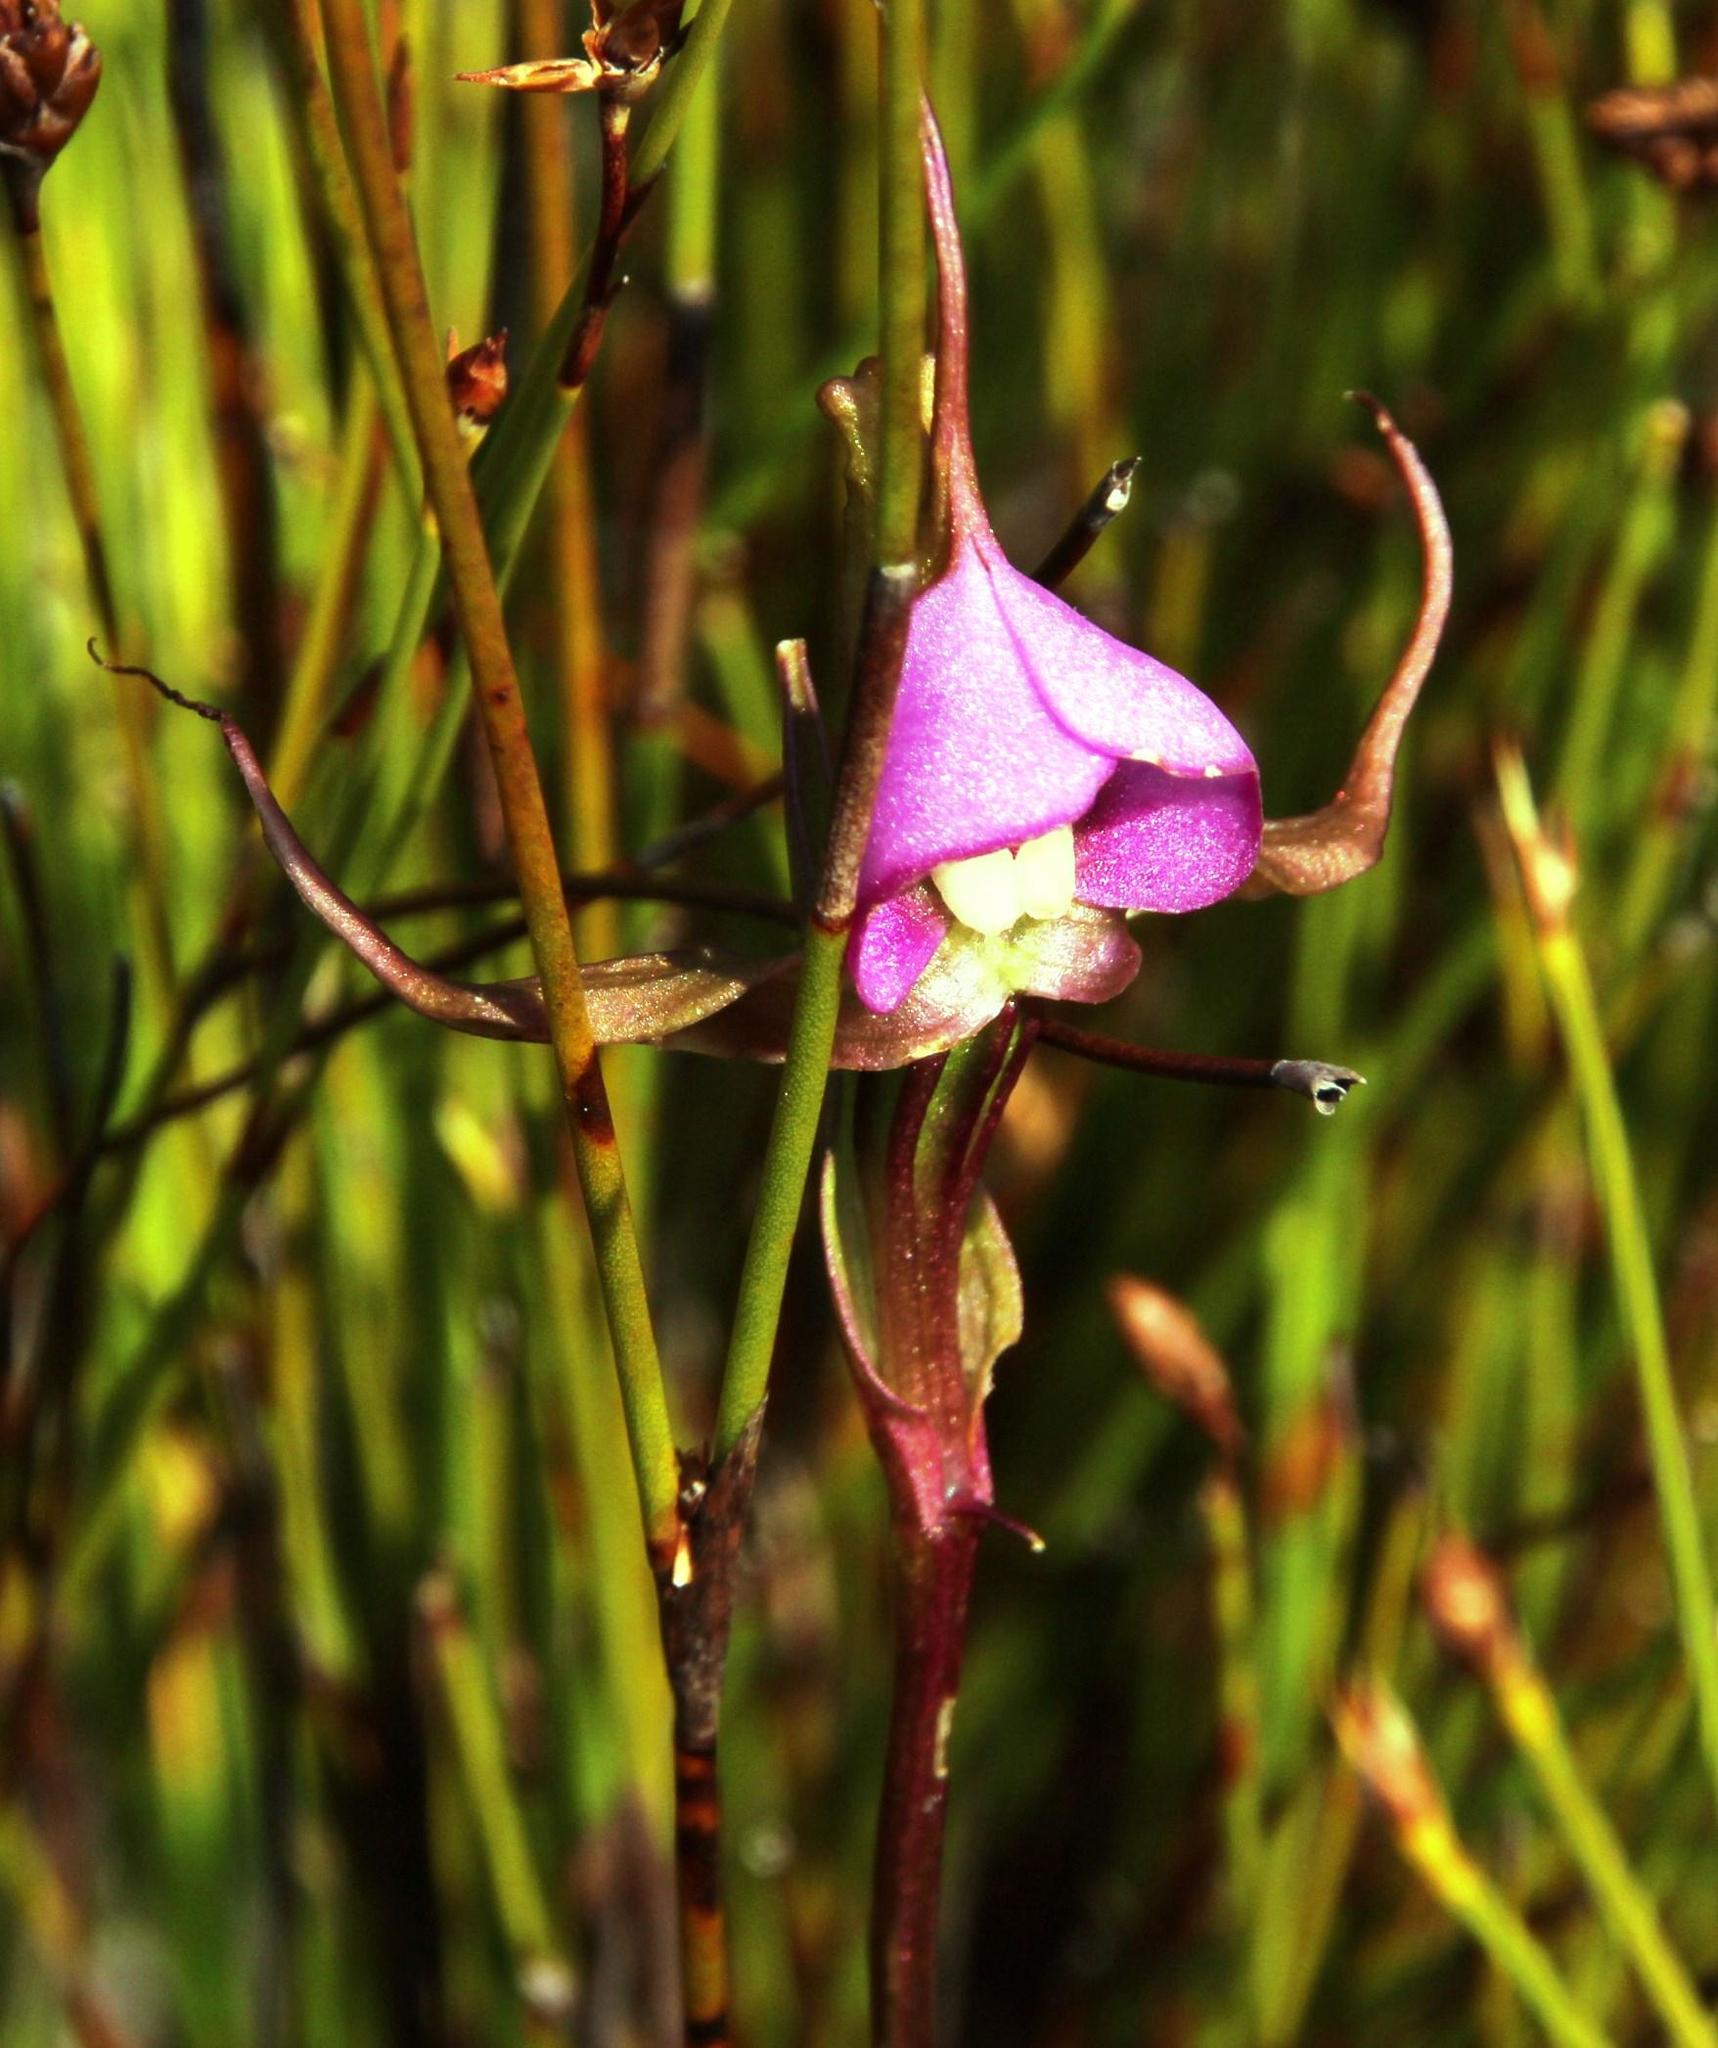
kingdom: Plantae
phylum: Tracheophyta
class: Liliopsida
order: Asparagales
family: Orchidaceae
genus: Disperis
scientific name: Disperis capensis
